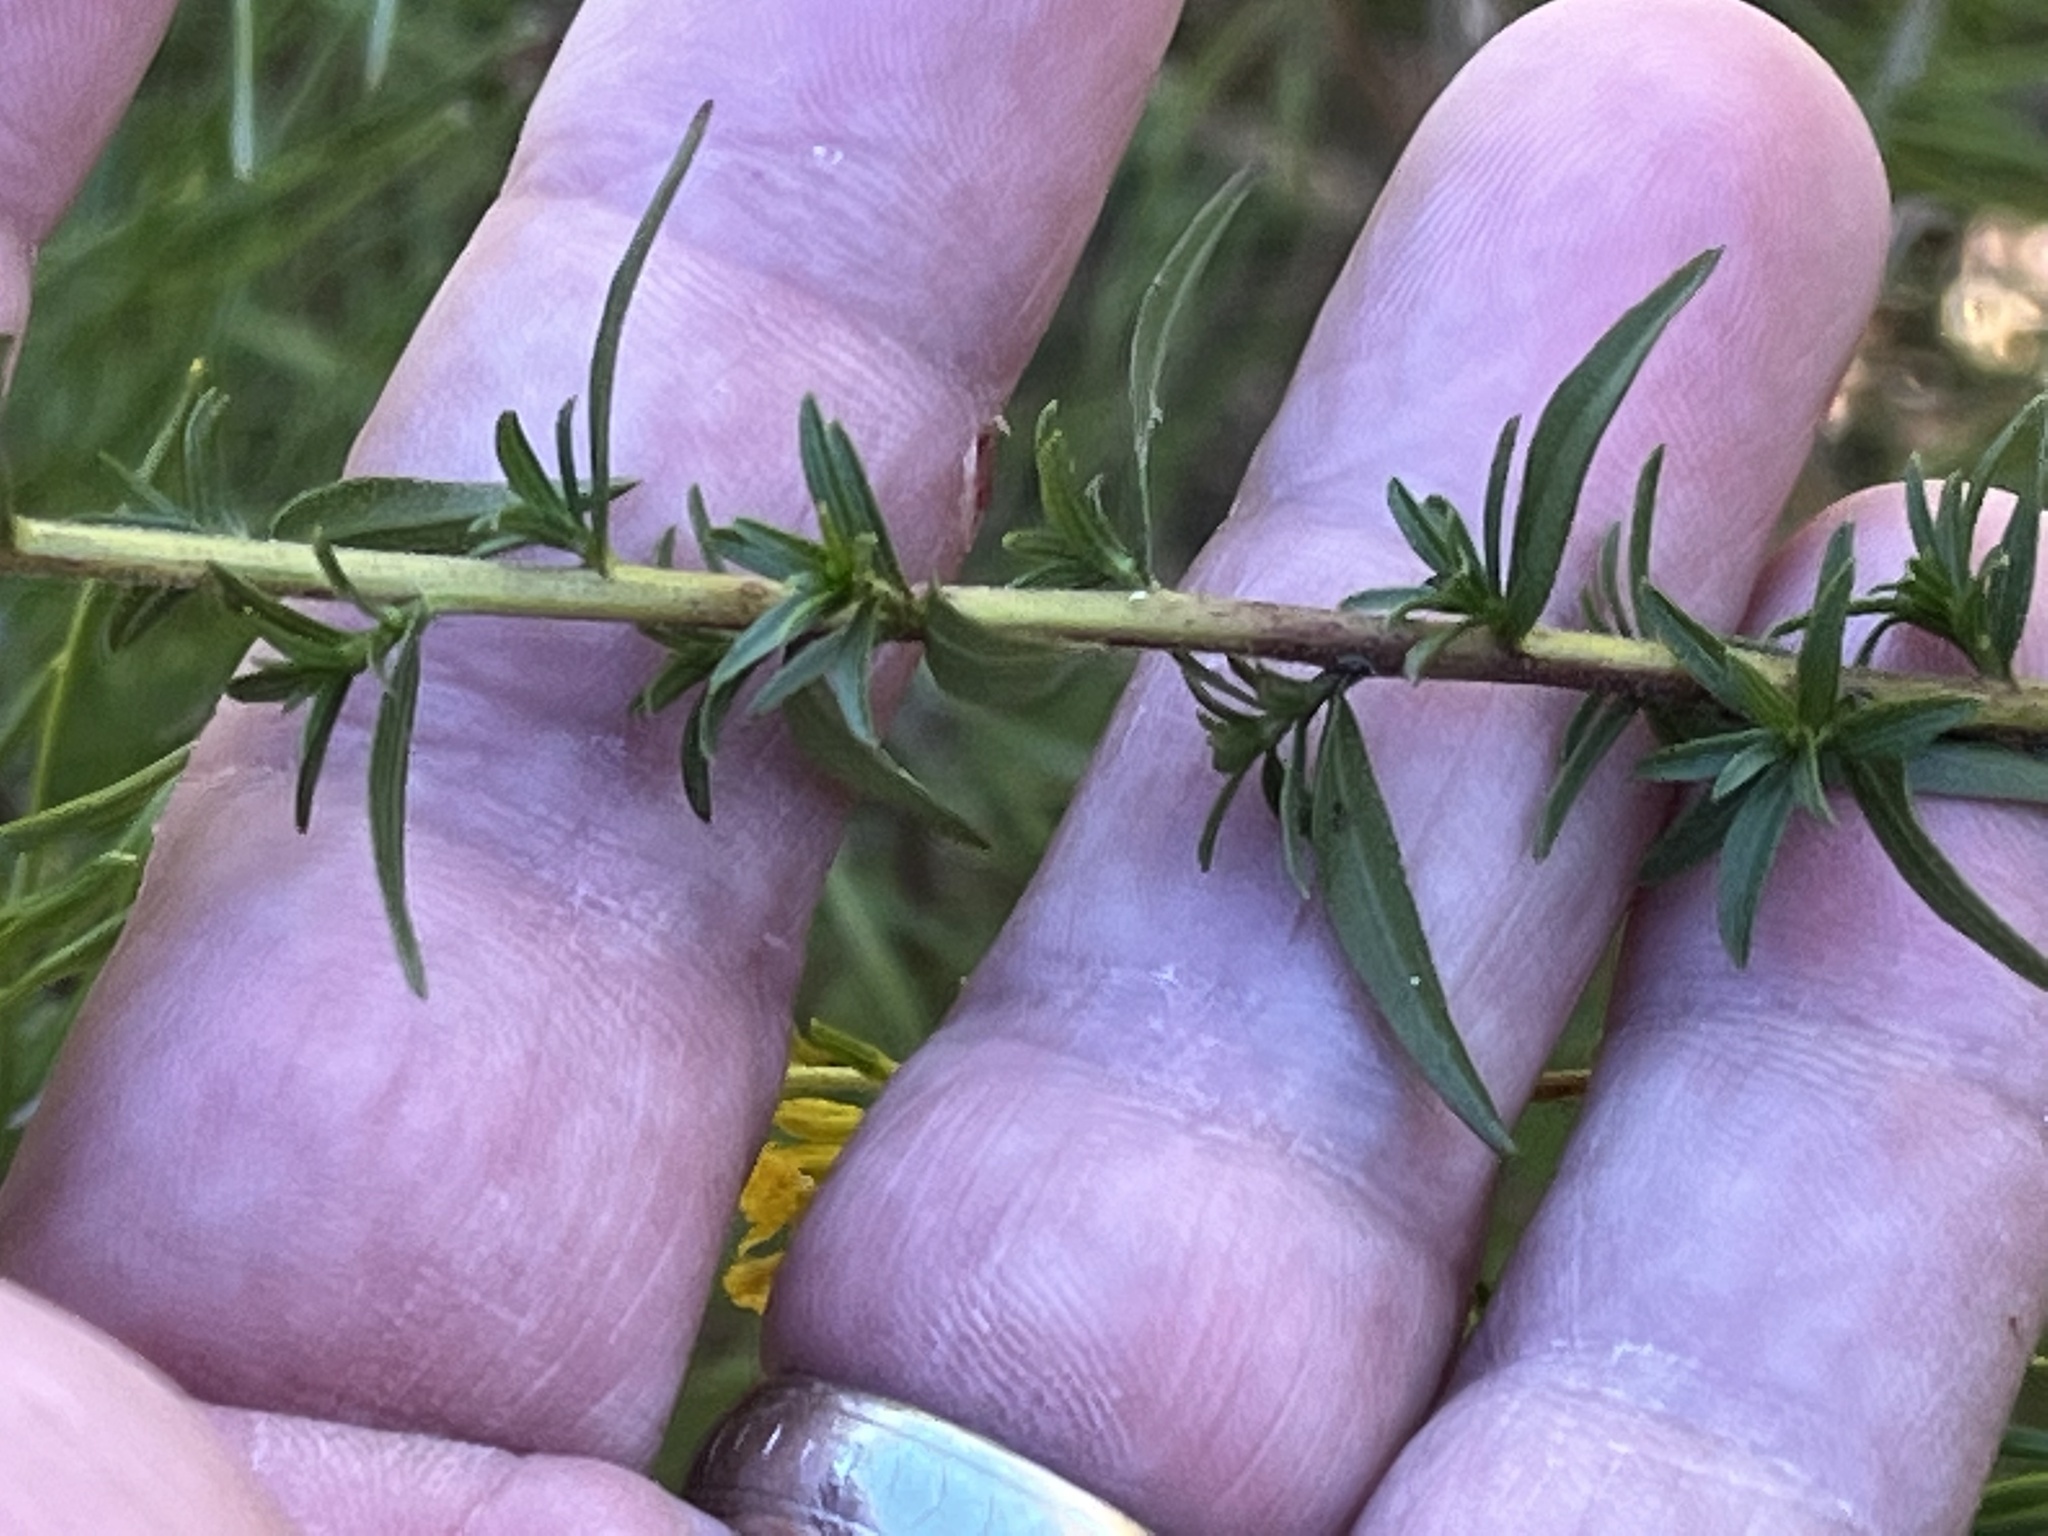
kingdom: Plantae
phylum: Tracheophyta
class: Magnoliopsida
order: Asterales
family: Asteraceae
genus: Solidago
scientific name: Solidago odora
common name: Anise-scented goldenrod
